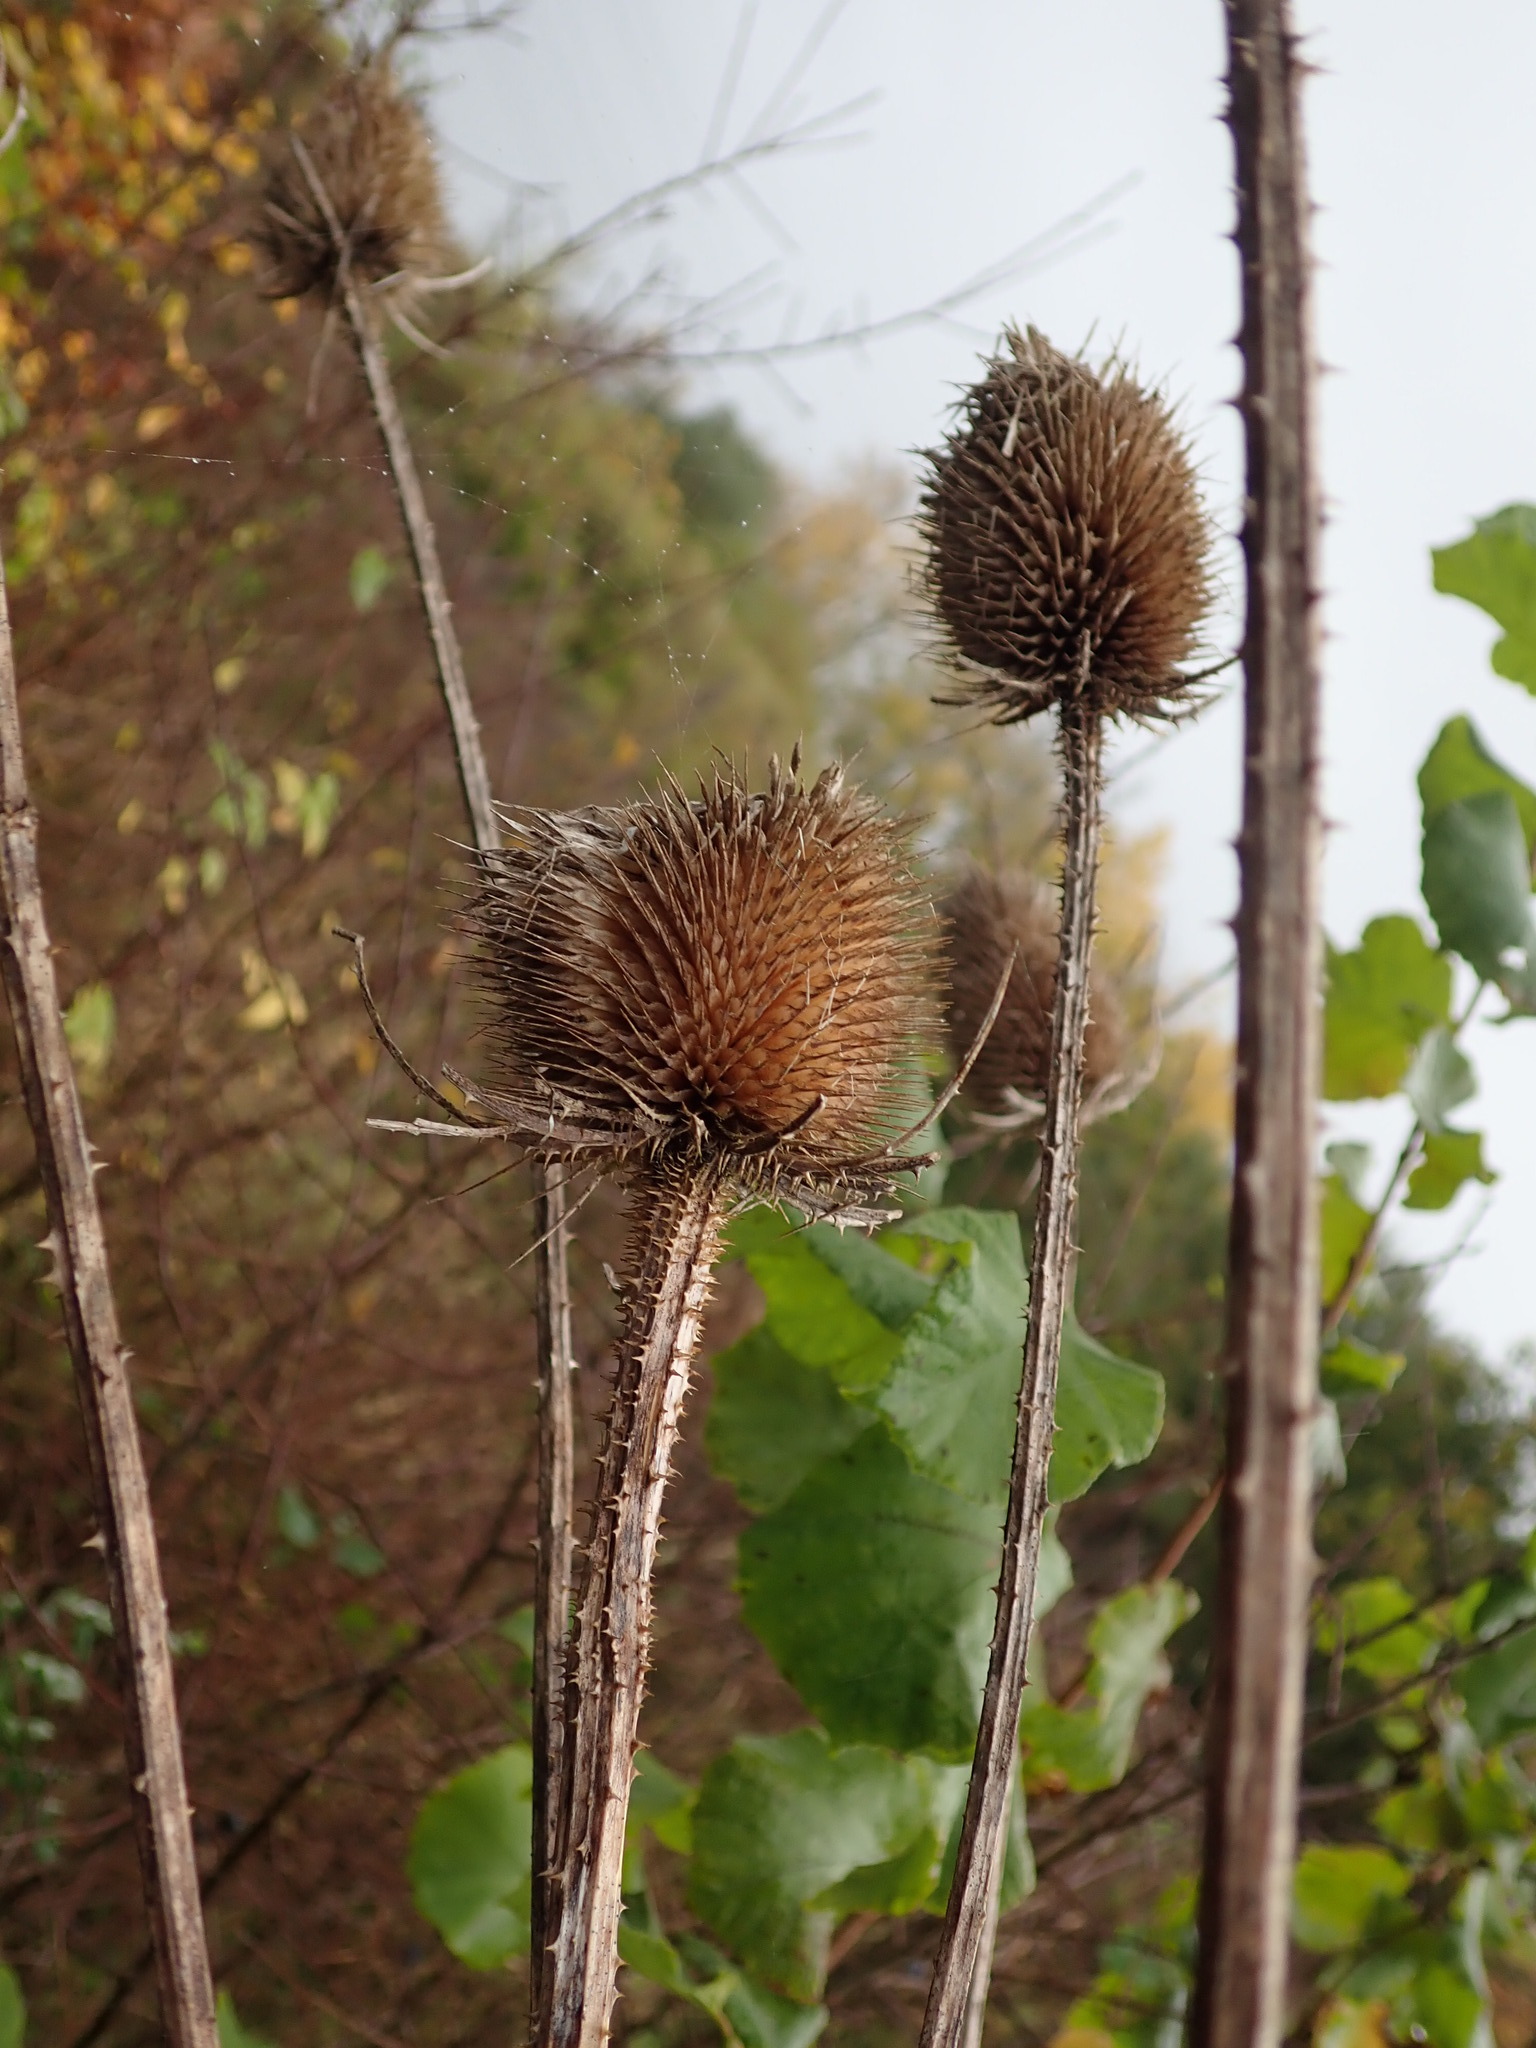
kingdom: Plantae
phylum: Tracheophyta
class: Magnoliopsida
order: Dipsacales
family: Caprifoliaceae
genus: Dipsacus
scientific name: Dipsacus fullonum
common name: Teasel
